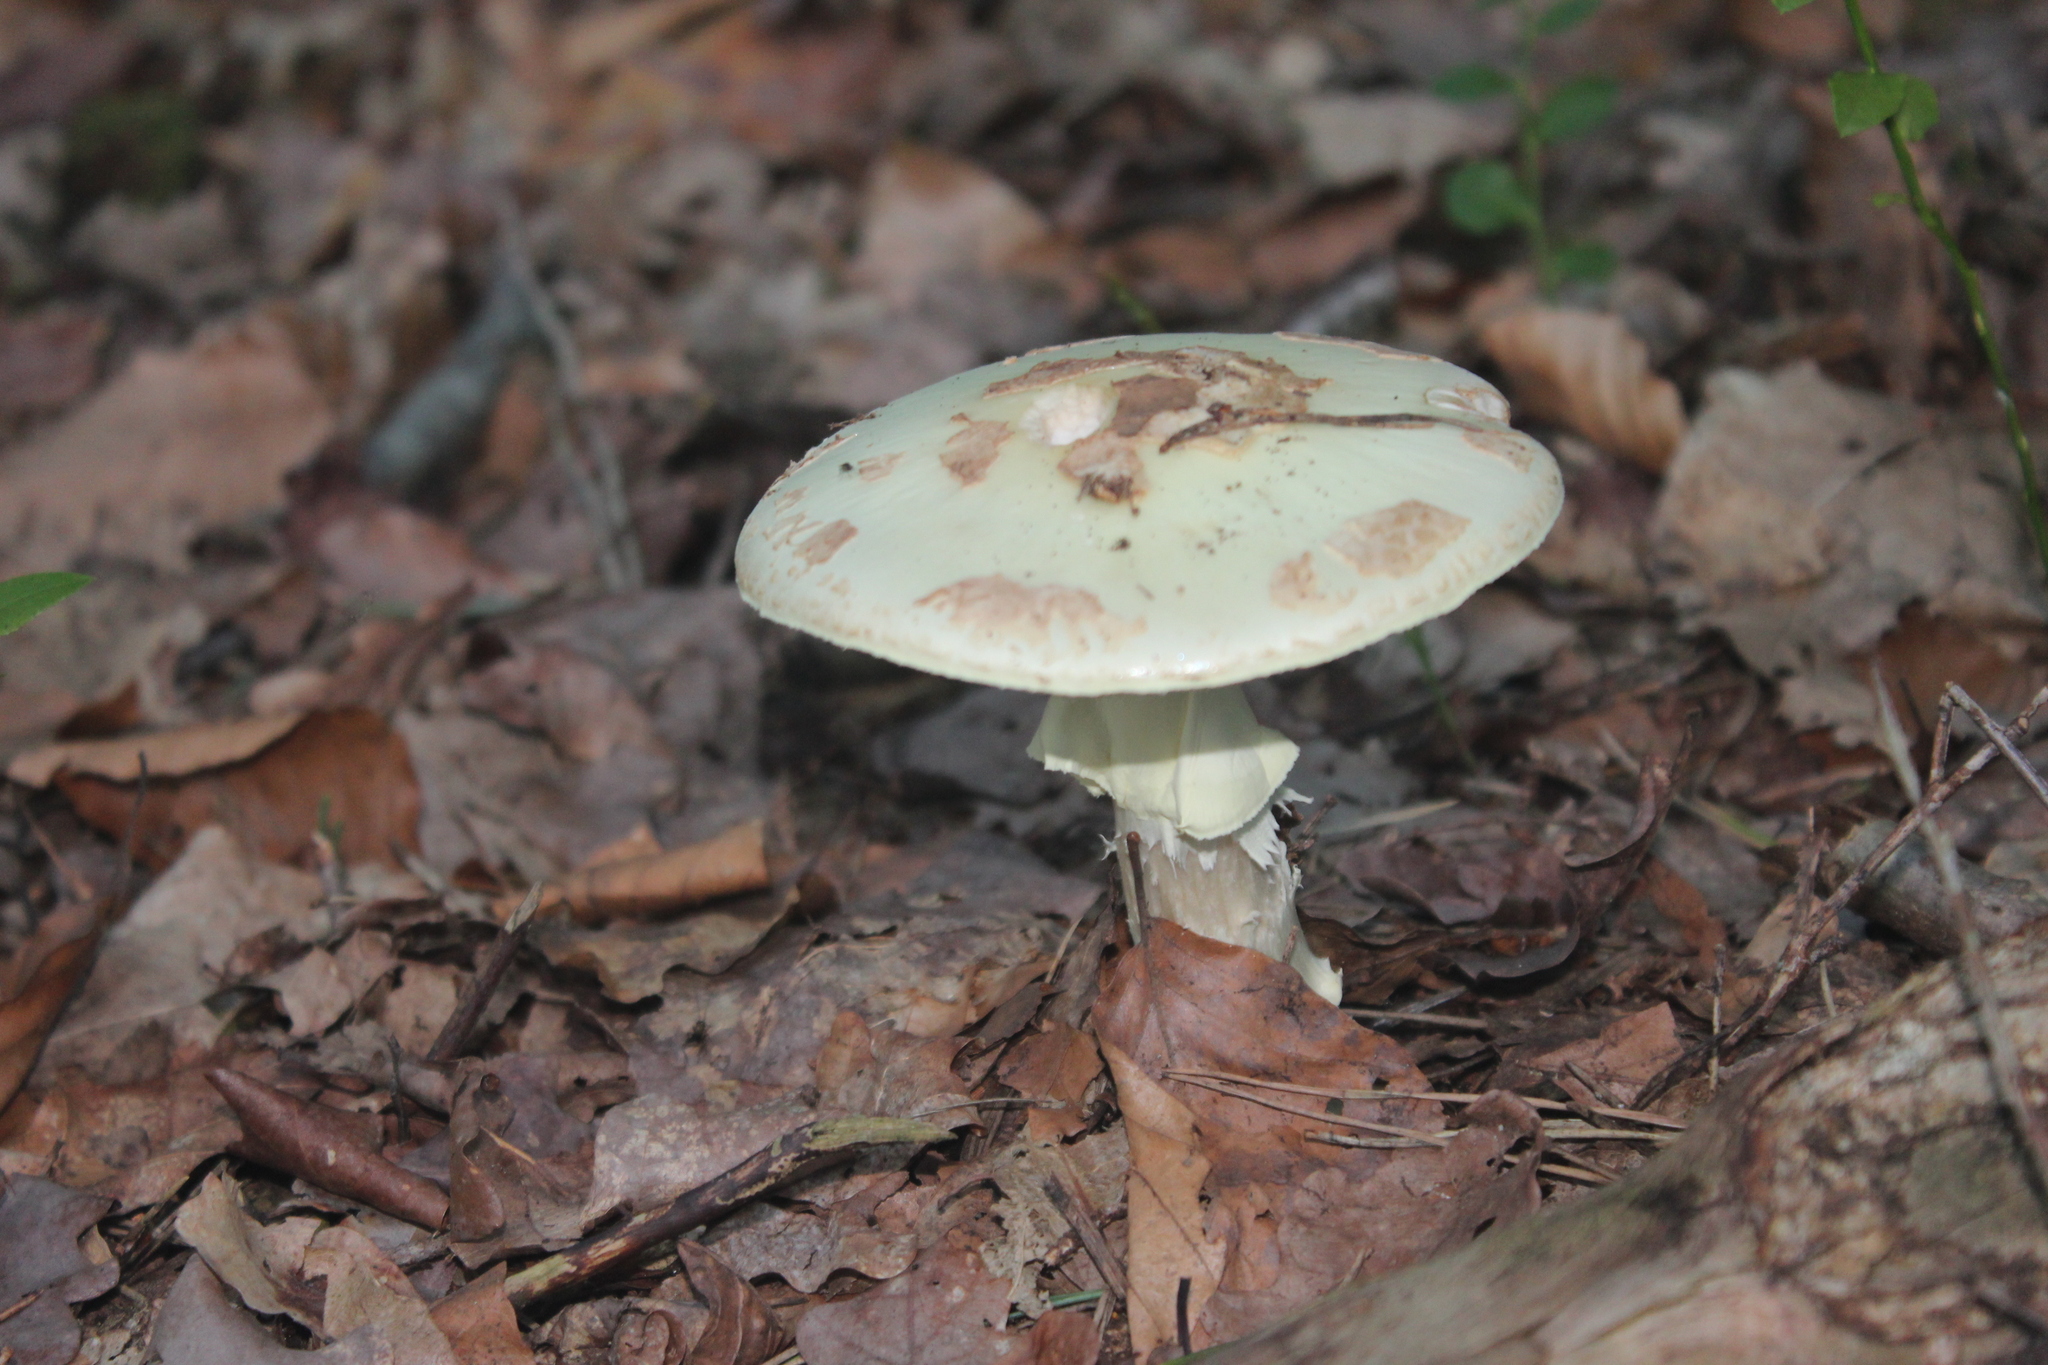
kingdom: Fungi
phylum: Basidiomycota
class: Agaricomycetes
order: Agaricales
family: Amanitaceae
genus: Amanita
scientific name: Amanita citrina
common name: False death-cap
